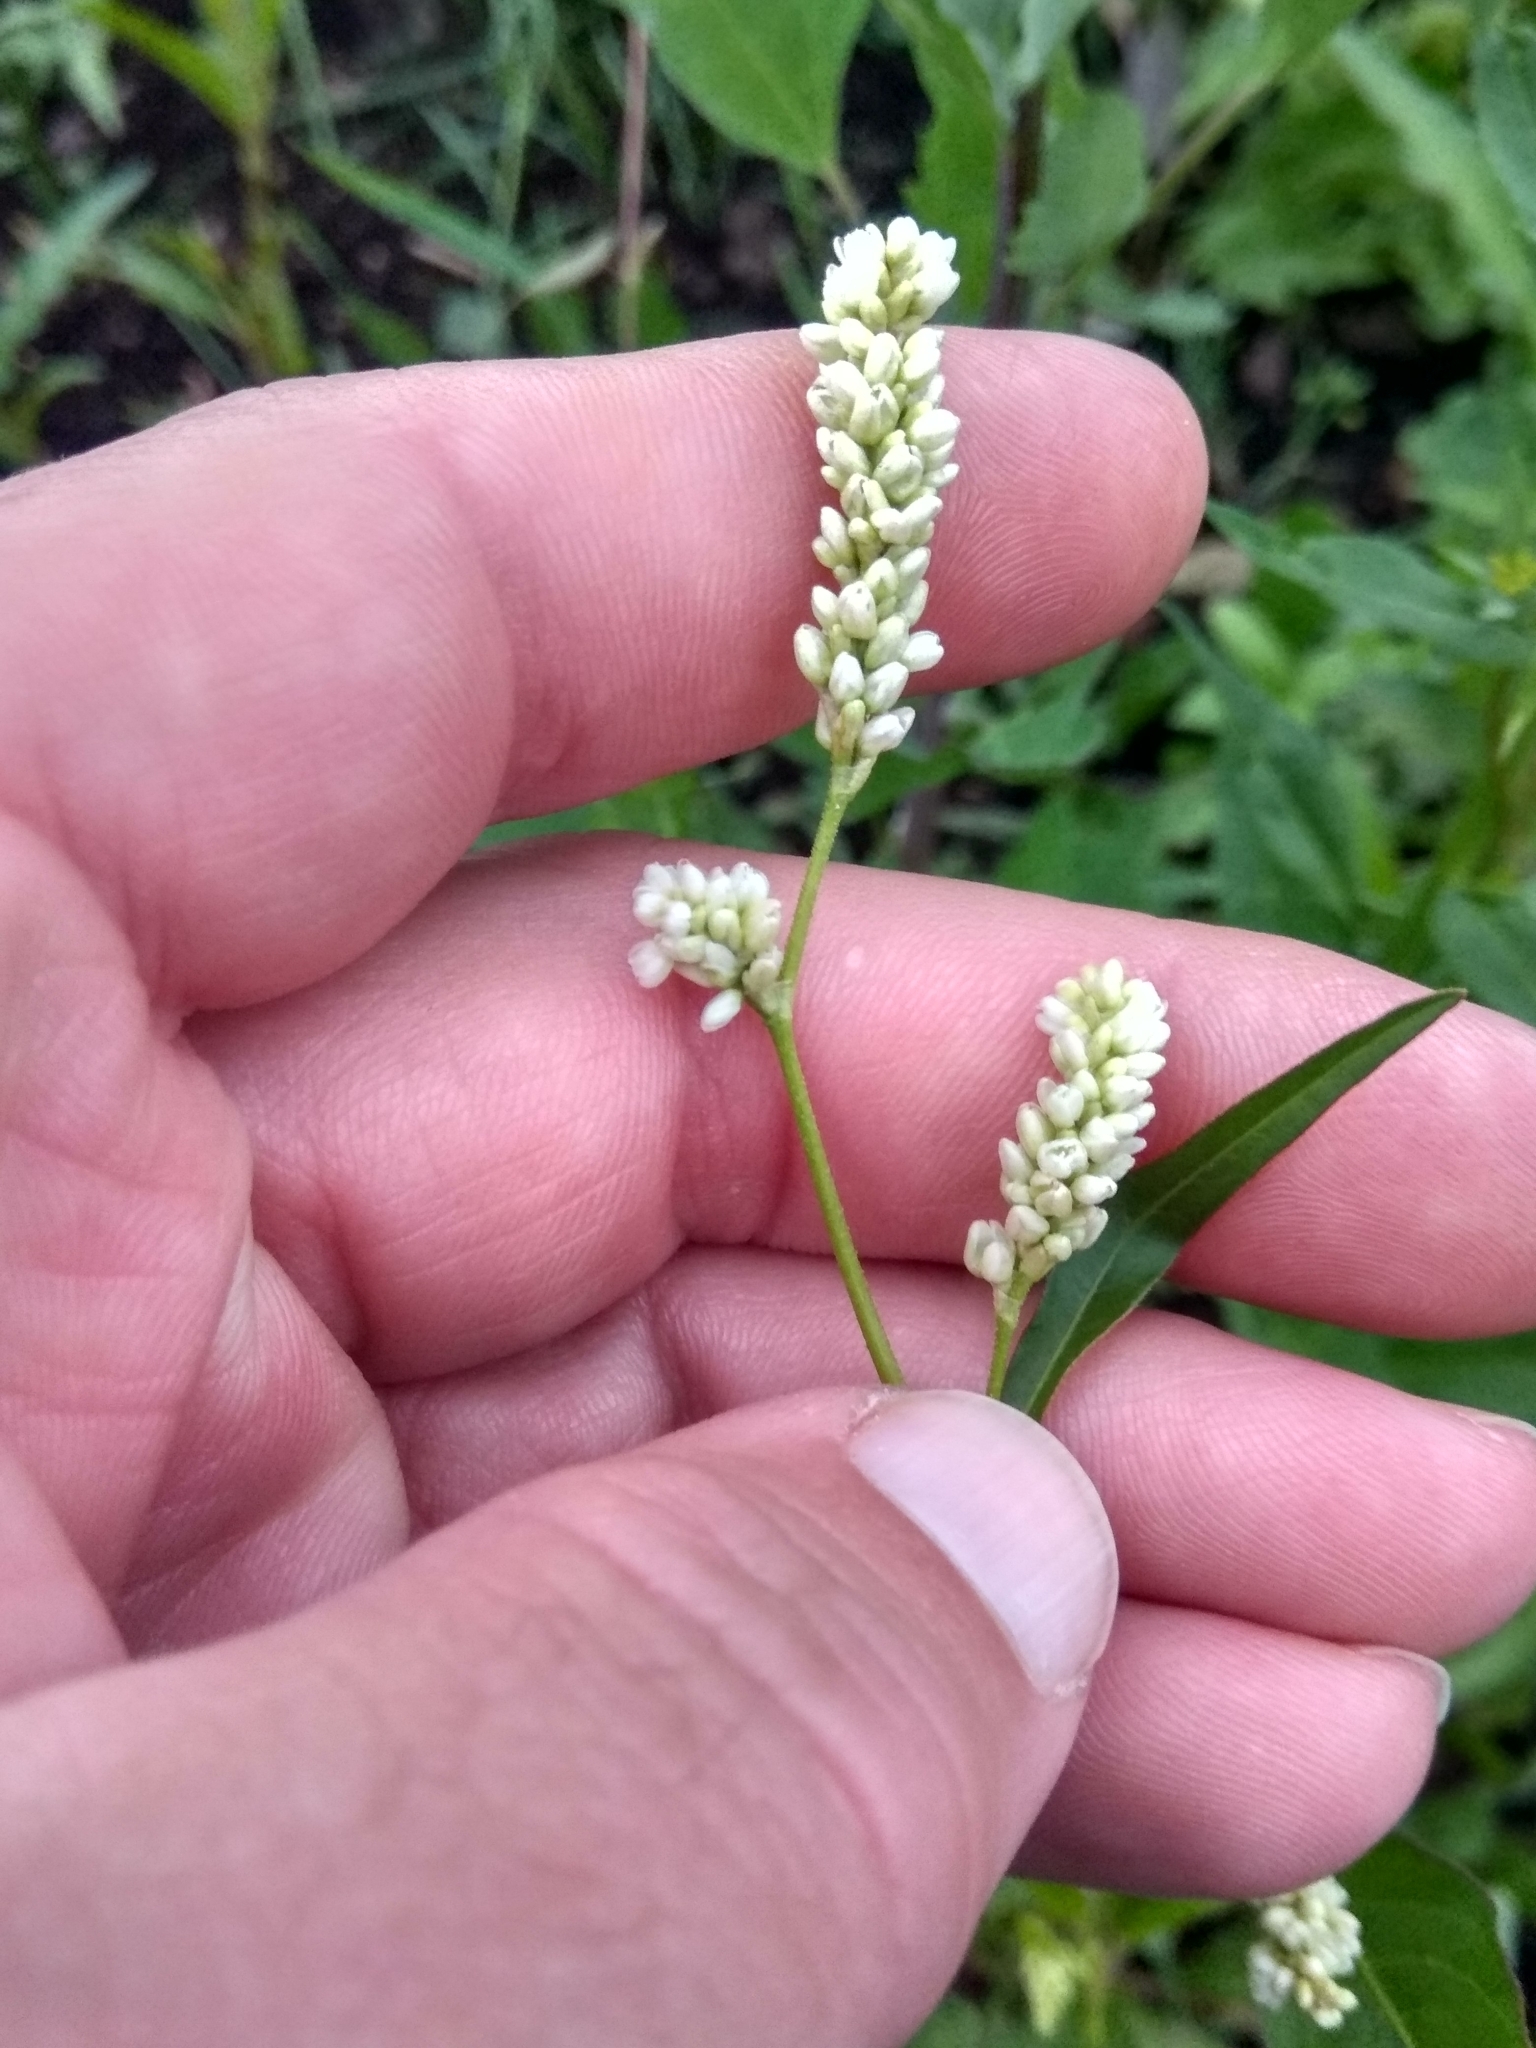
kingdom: Plantae
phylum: Tracheophyta
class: Magnoliopsida
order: Caryophyllales
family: Polygonaceae
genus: Persicaria
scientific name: Persicaria maculosa
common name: Redshank
